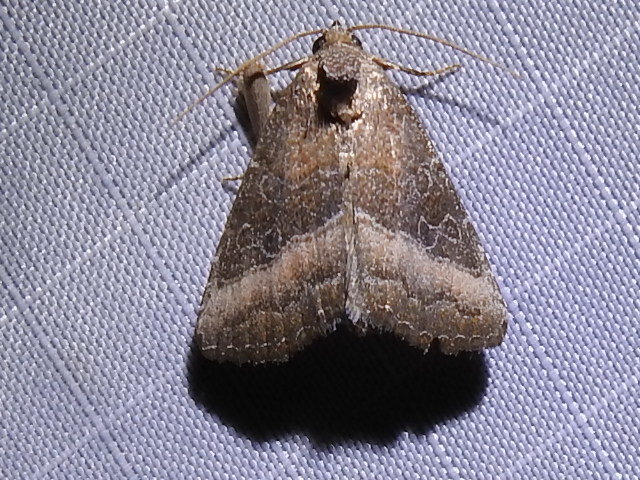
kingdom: Animalia
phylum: Arthropoda
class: Insecta
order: Lepidoptera
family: Noctuidae
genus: Ogdoconta
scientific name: Ogdoconta cinereola
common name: Common pinkband
